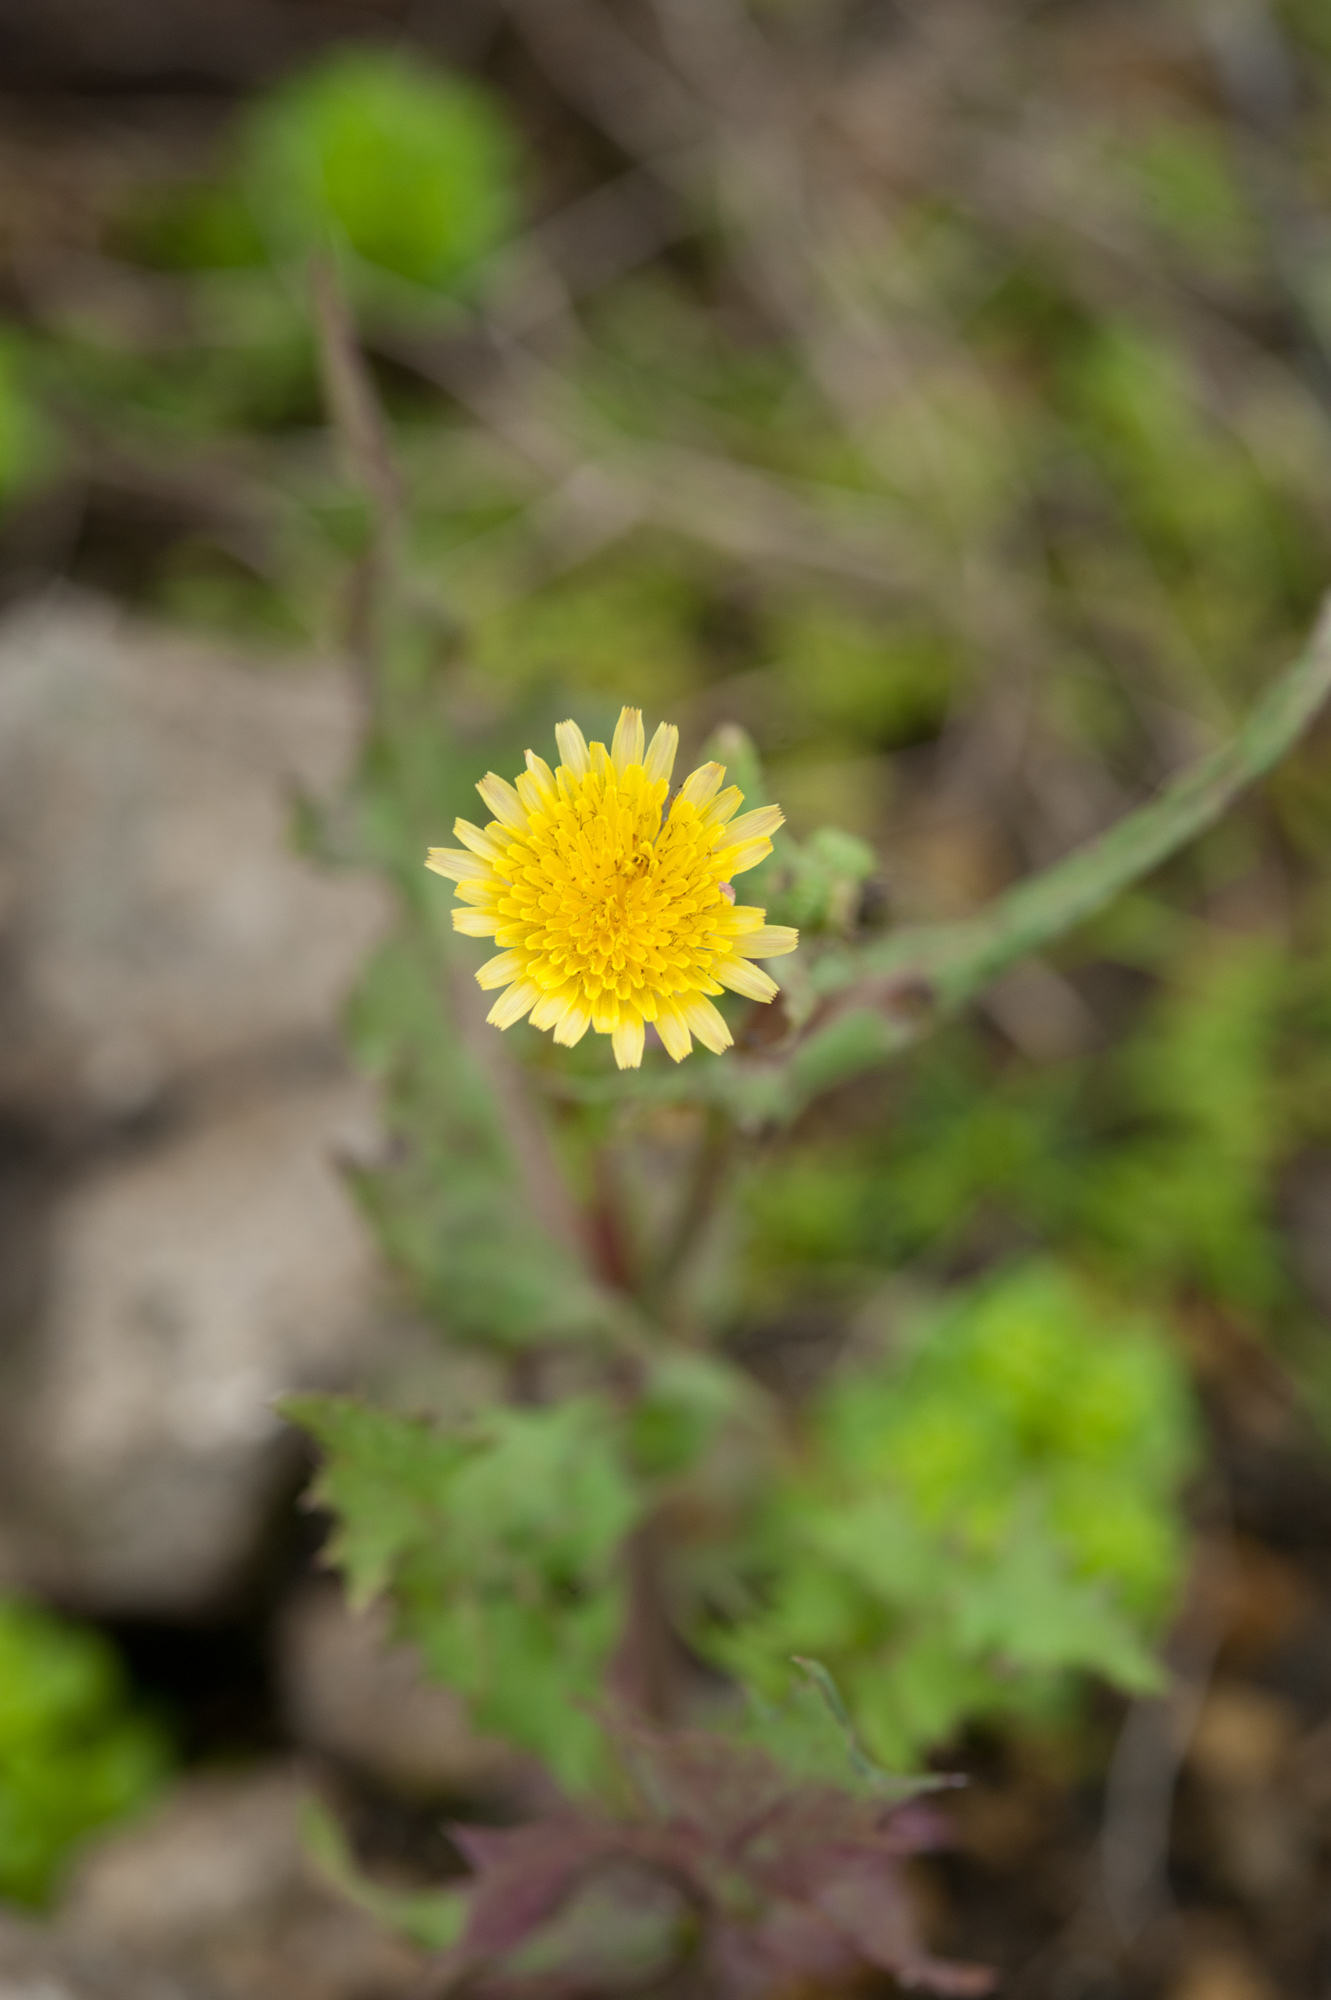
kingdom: Plantae
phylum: Tracheophyta
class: Magnoliopsida
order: Asterales
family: Asteraceae
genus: Sonchus
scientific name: Sonchus oleraceus
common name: Common sowthistle
